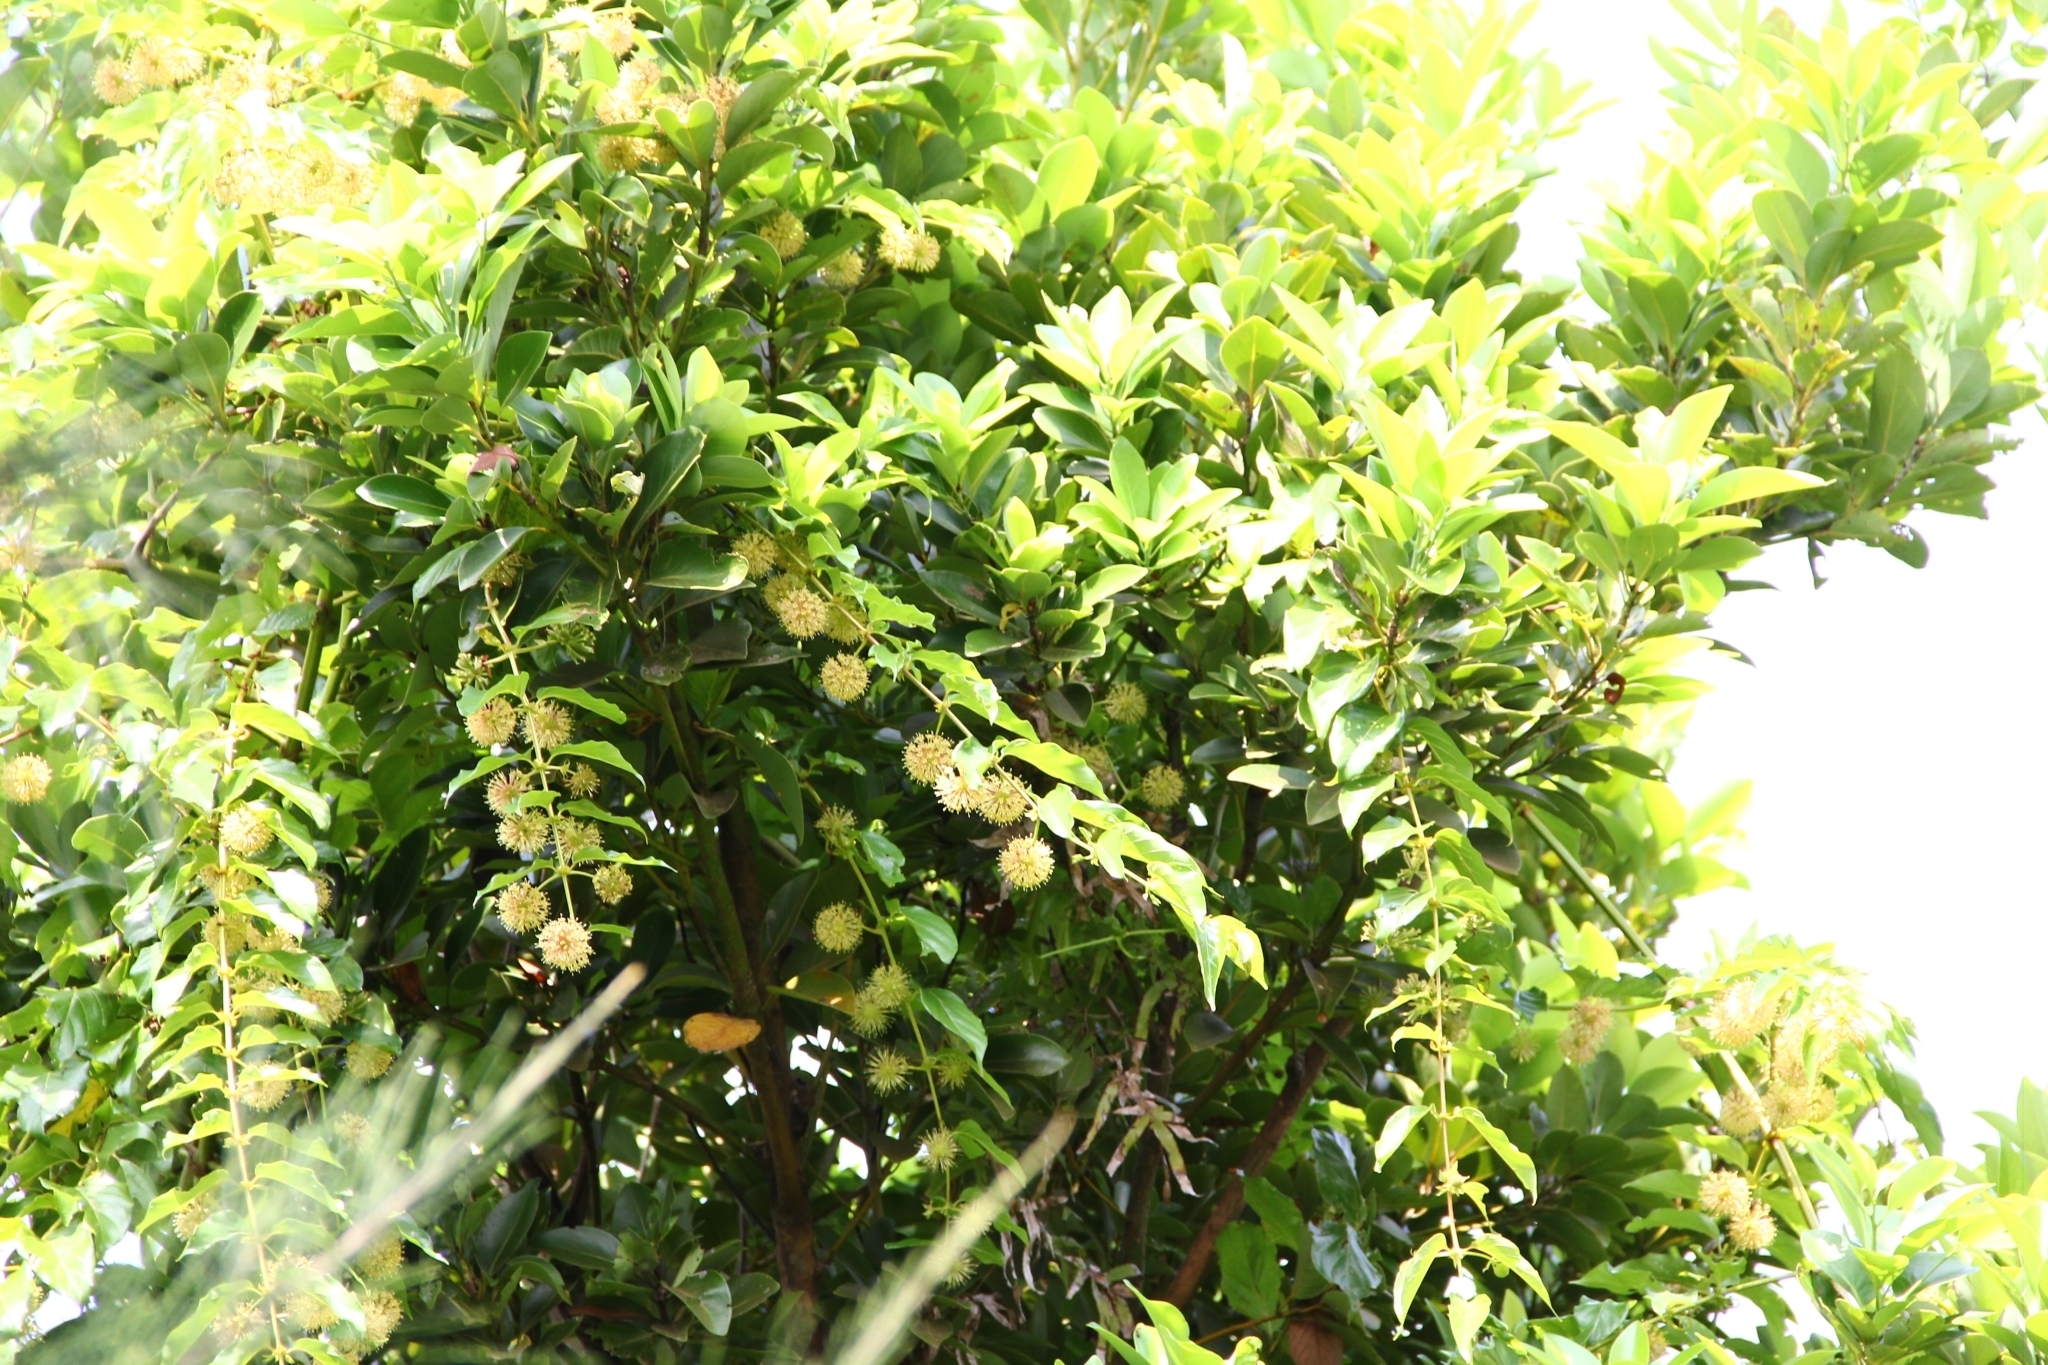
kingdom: Plantae
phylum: Tracheophyta
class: Magnoliopsida
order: Gentianales
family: Rubiaceae
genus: Uncaria
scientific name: Uncaria lanosa
